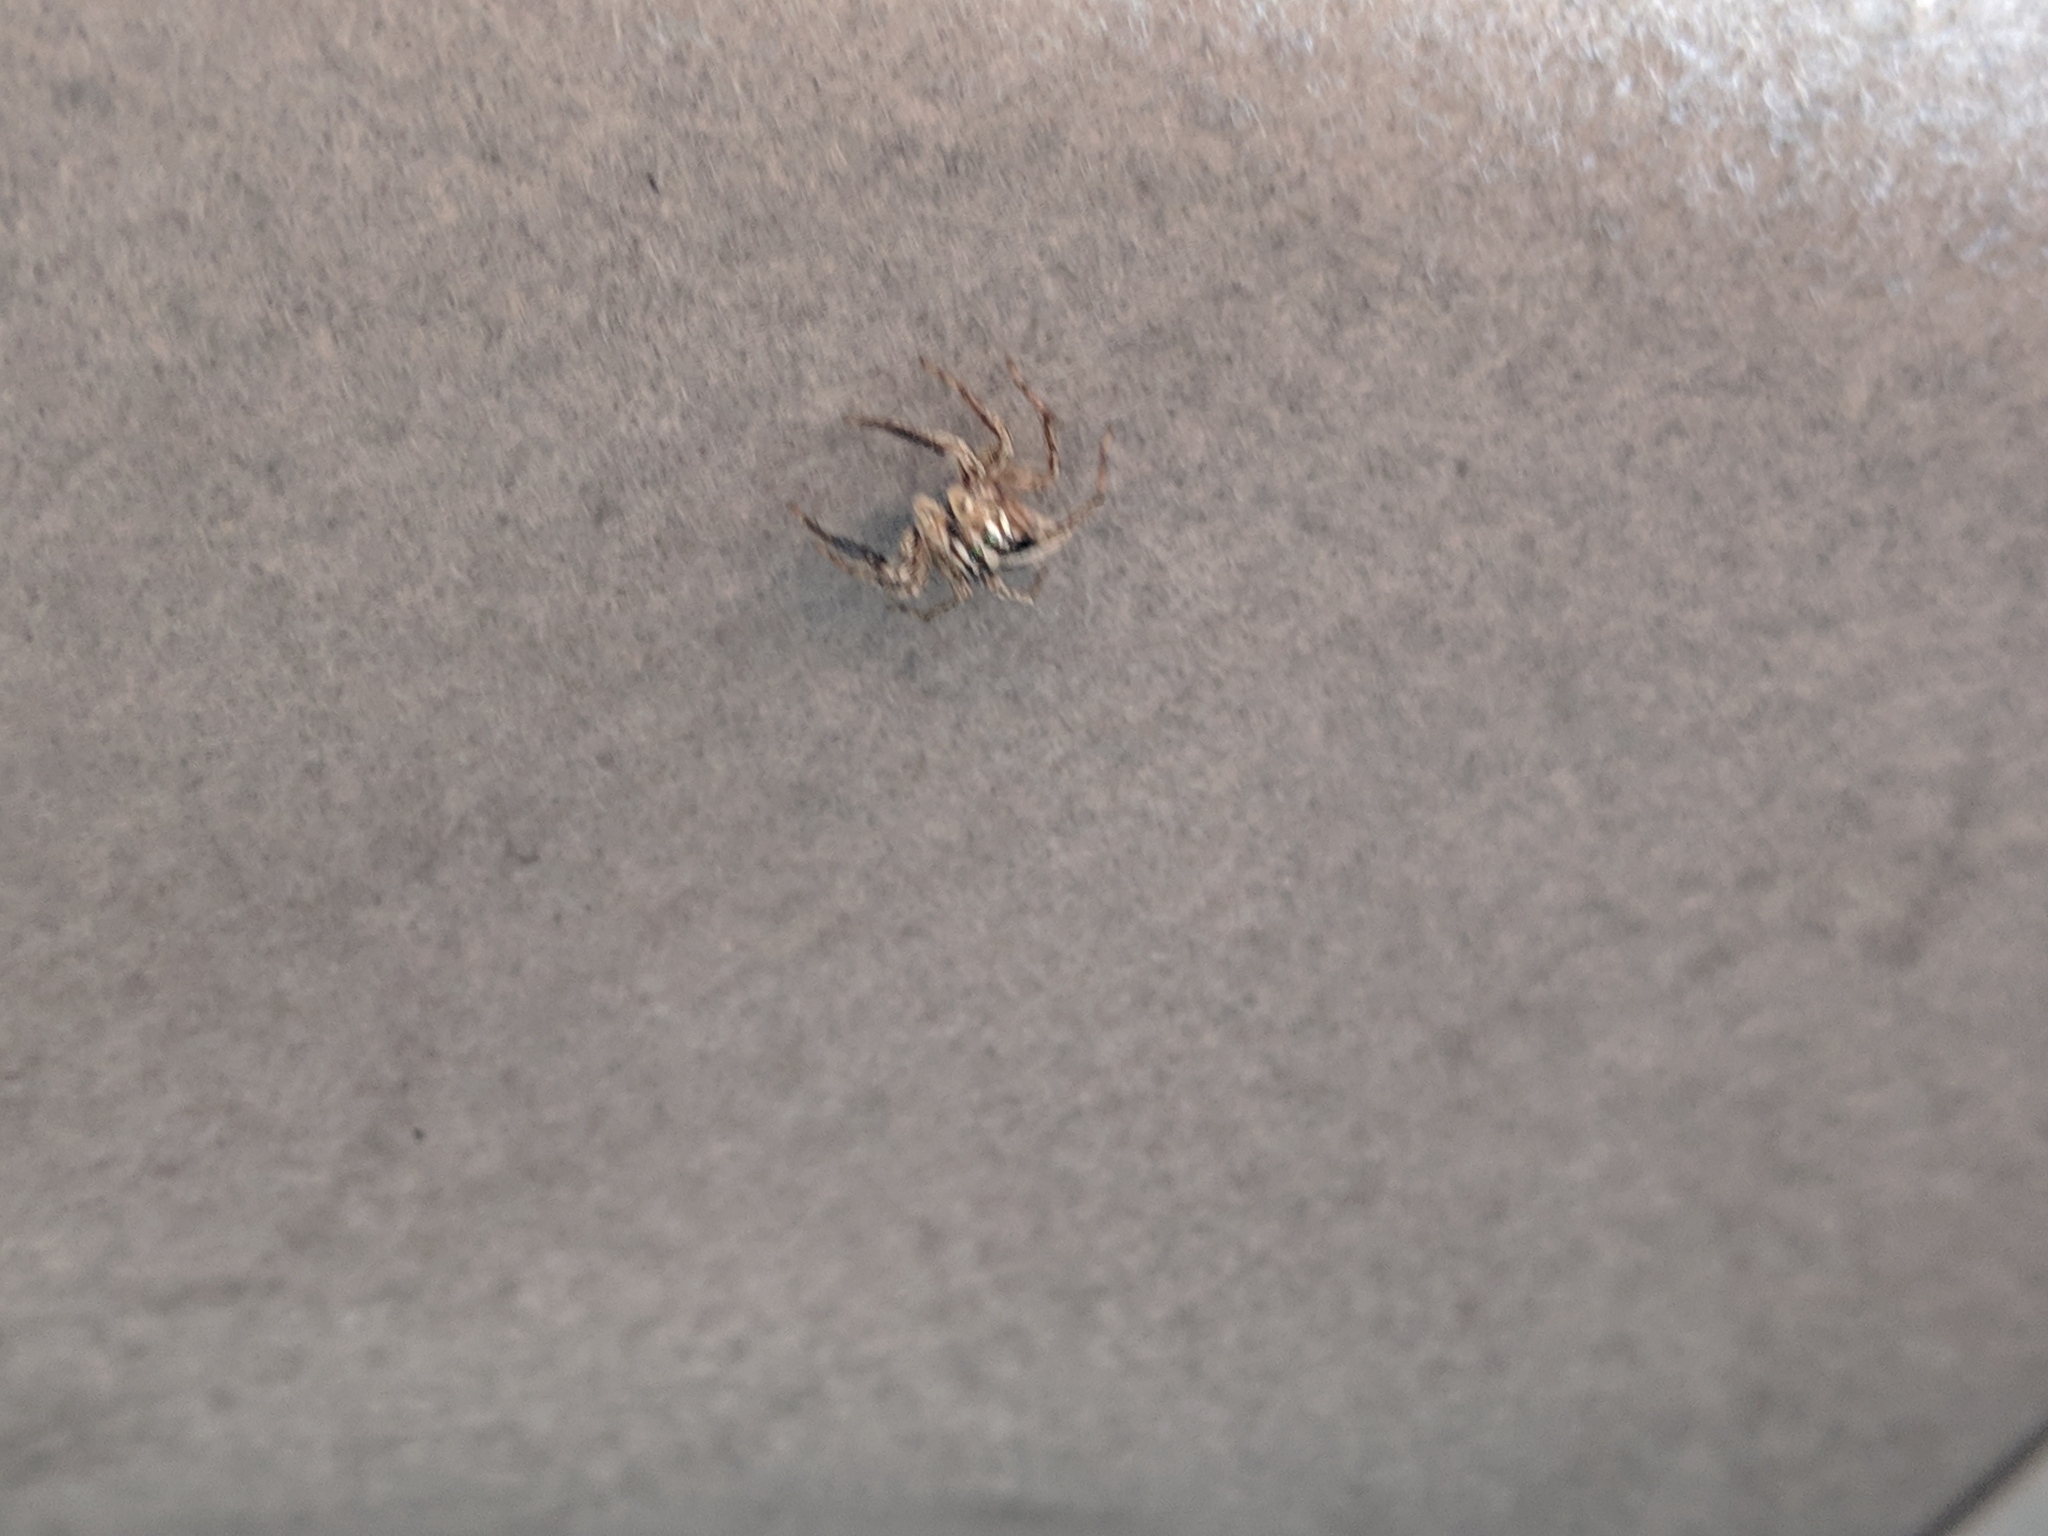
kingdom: Animalia
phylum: Arthropoda
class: Arachnida
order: Araneae
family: Salticidae
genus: Plexippus
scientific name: Plexippus paykulli
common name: Pantropical jumper
